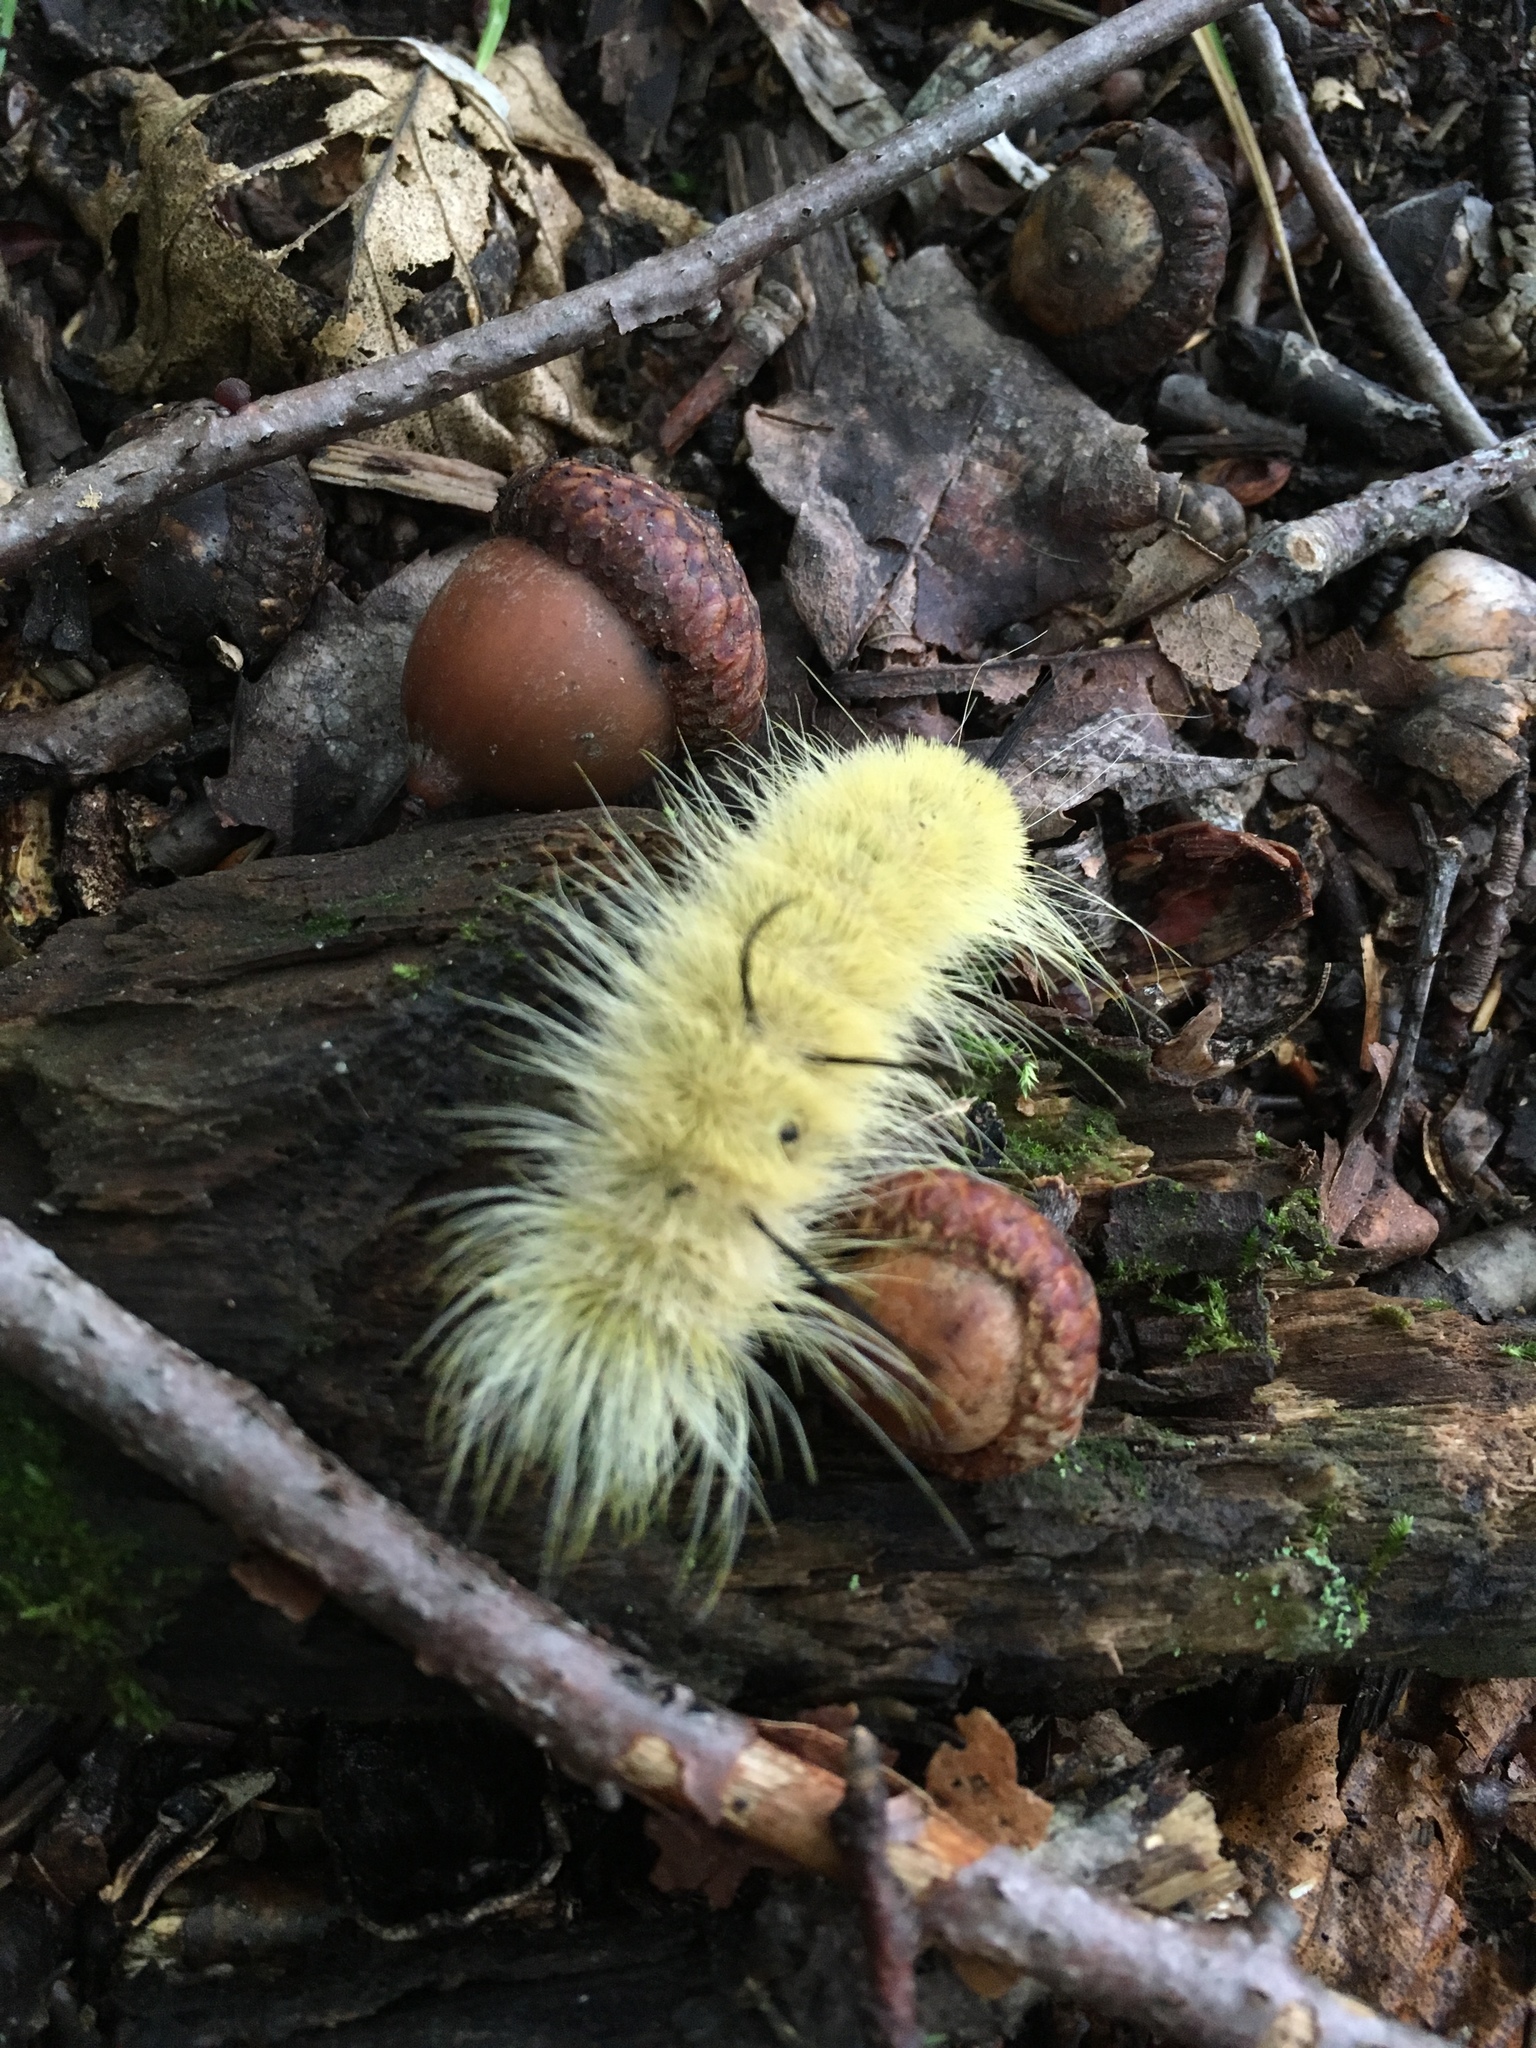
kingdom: Animalia
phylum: Arthropoda
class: Insecta
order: Lepidoptera
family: Noctuidae
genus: Acronicta
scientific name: Acronicta americana
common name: American dagger
